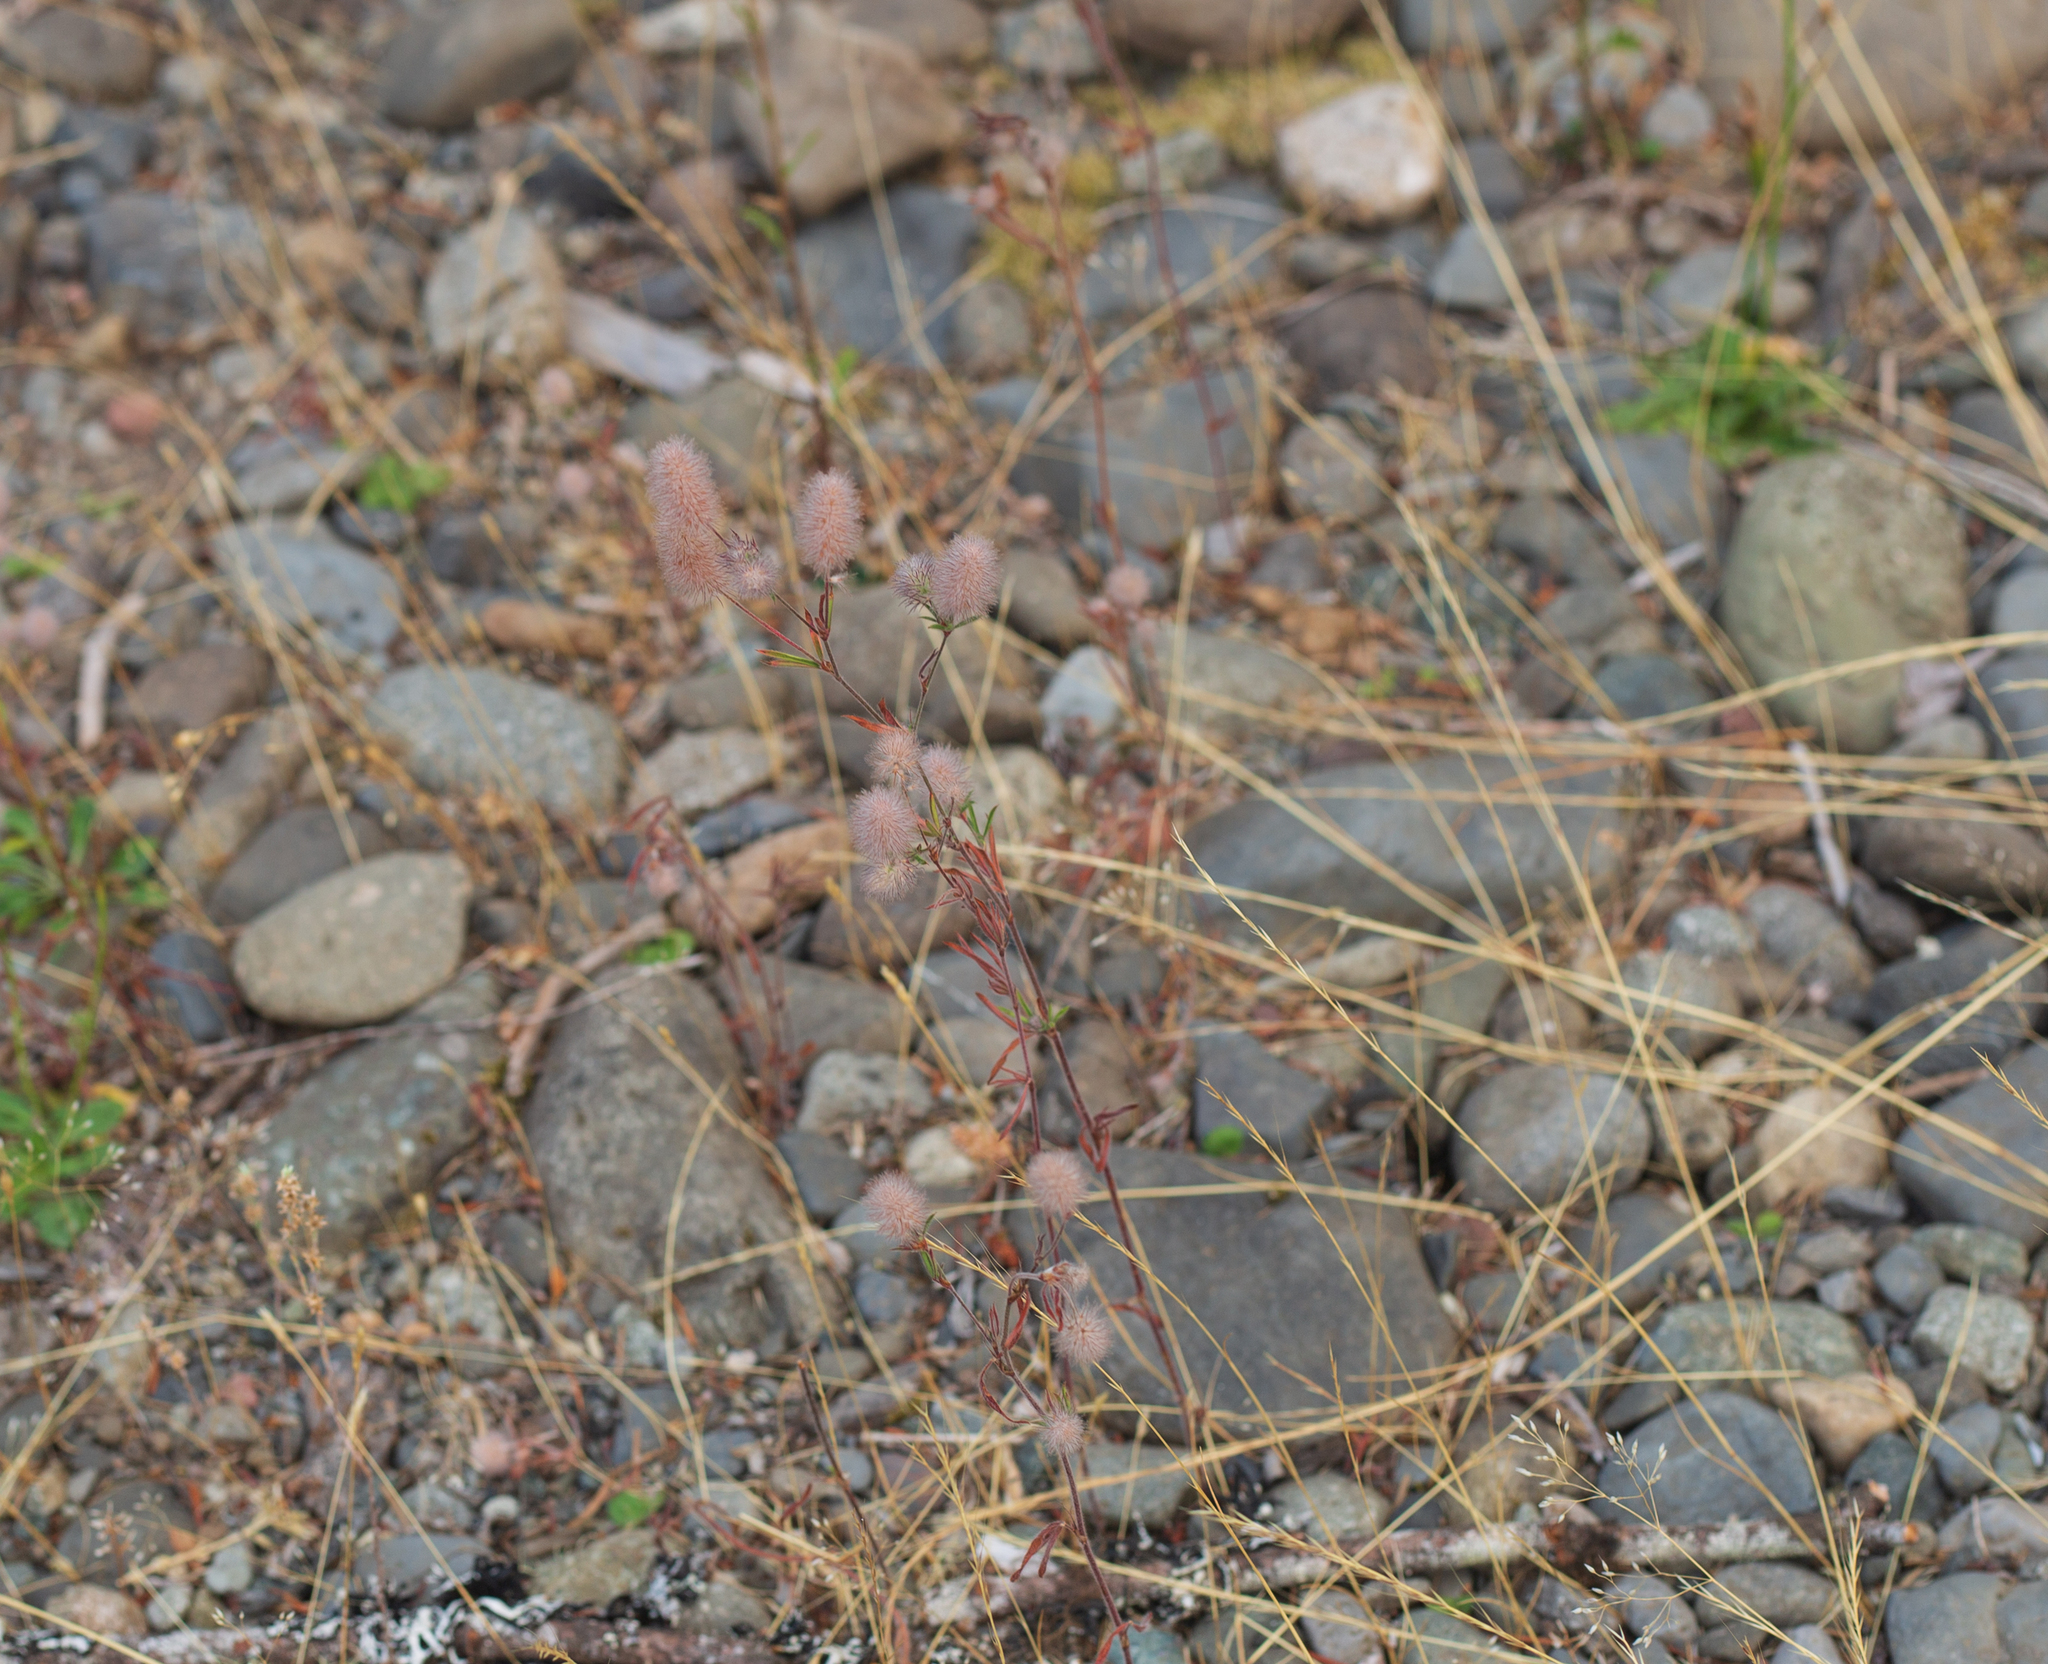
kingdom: Plantae
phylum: Tracheophyta
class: Magnoliopsida
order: Fabales
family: Fabaceae
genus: Trifolium
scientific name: Trifolium arvense
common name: Hare's-foot clover
